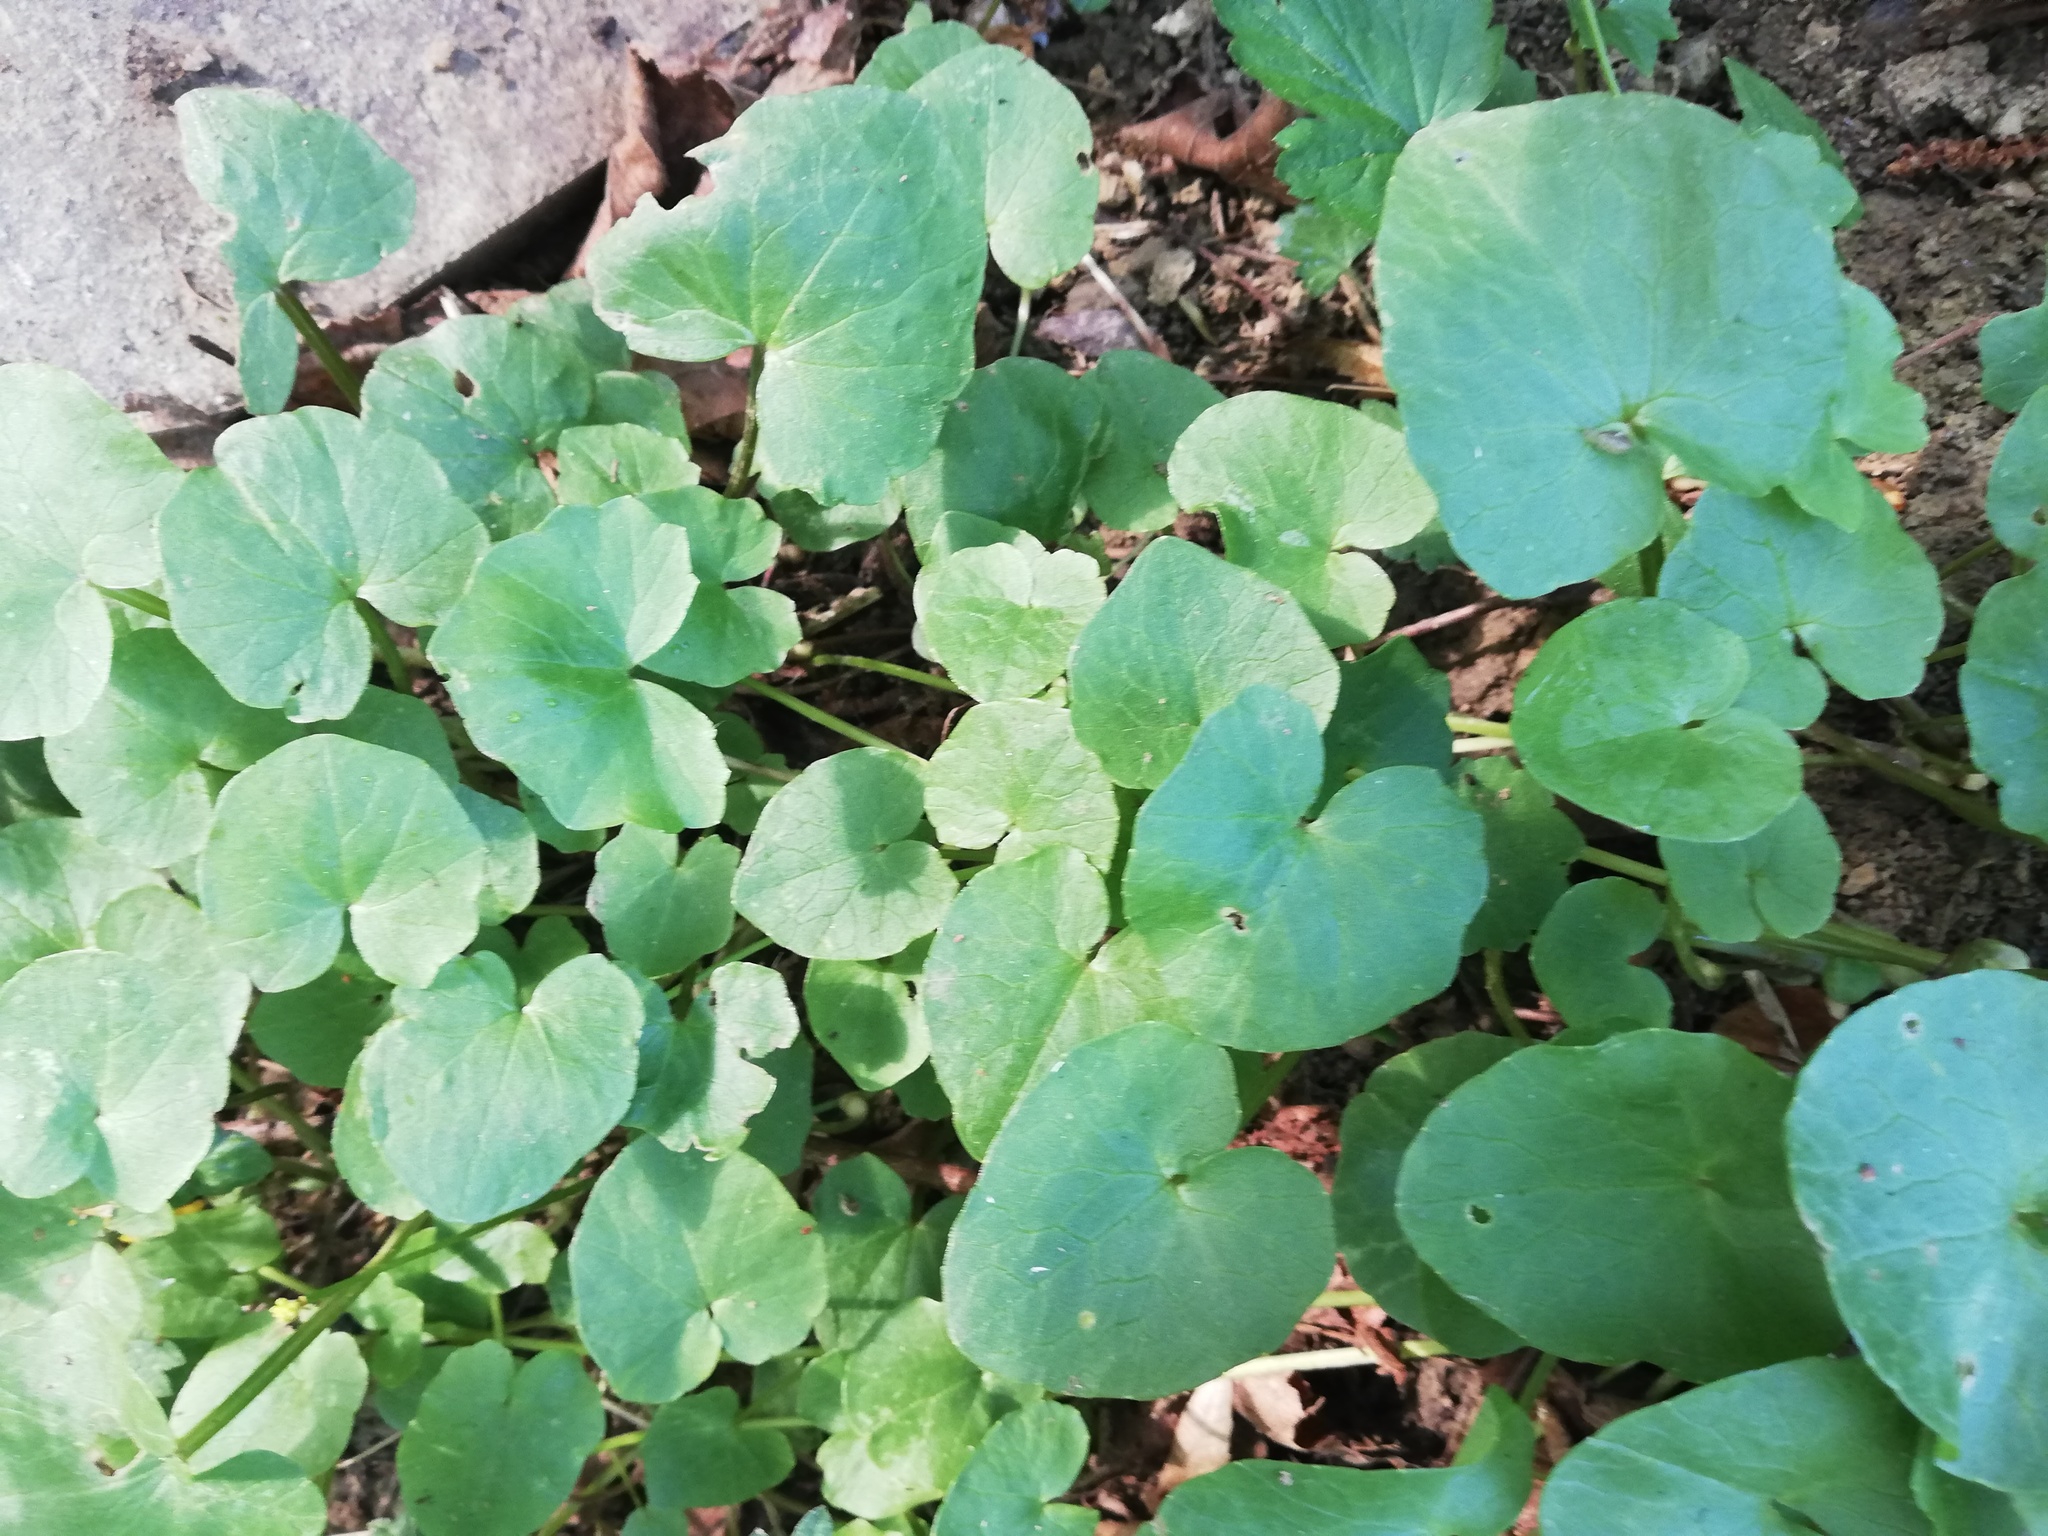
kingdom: Plantae
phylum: Tracheophyta
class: Magnoliopsida
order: Ranunculales
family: Ranunculaceae
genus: Ficaria
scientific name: Ficaria verna
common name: Lesser celandine
